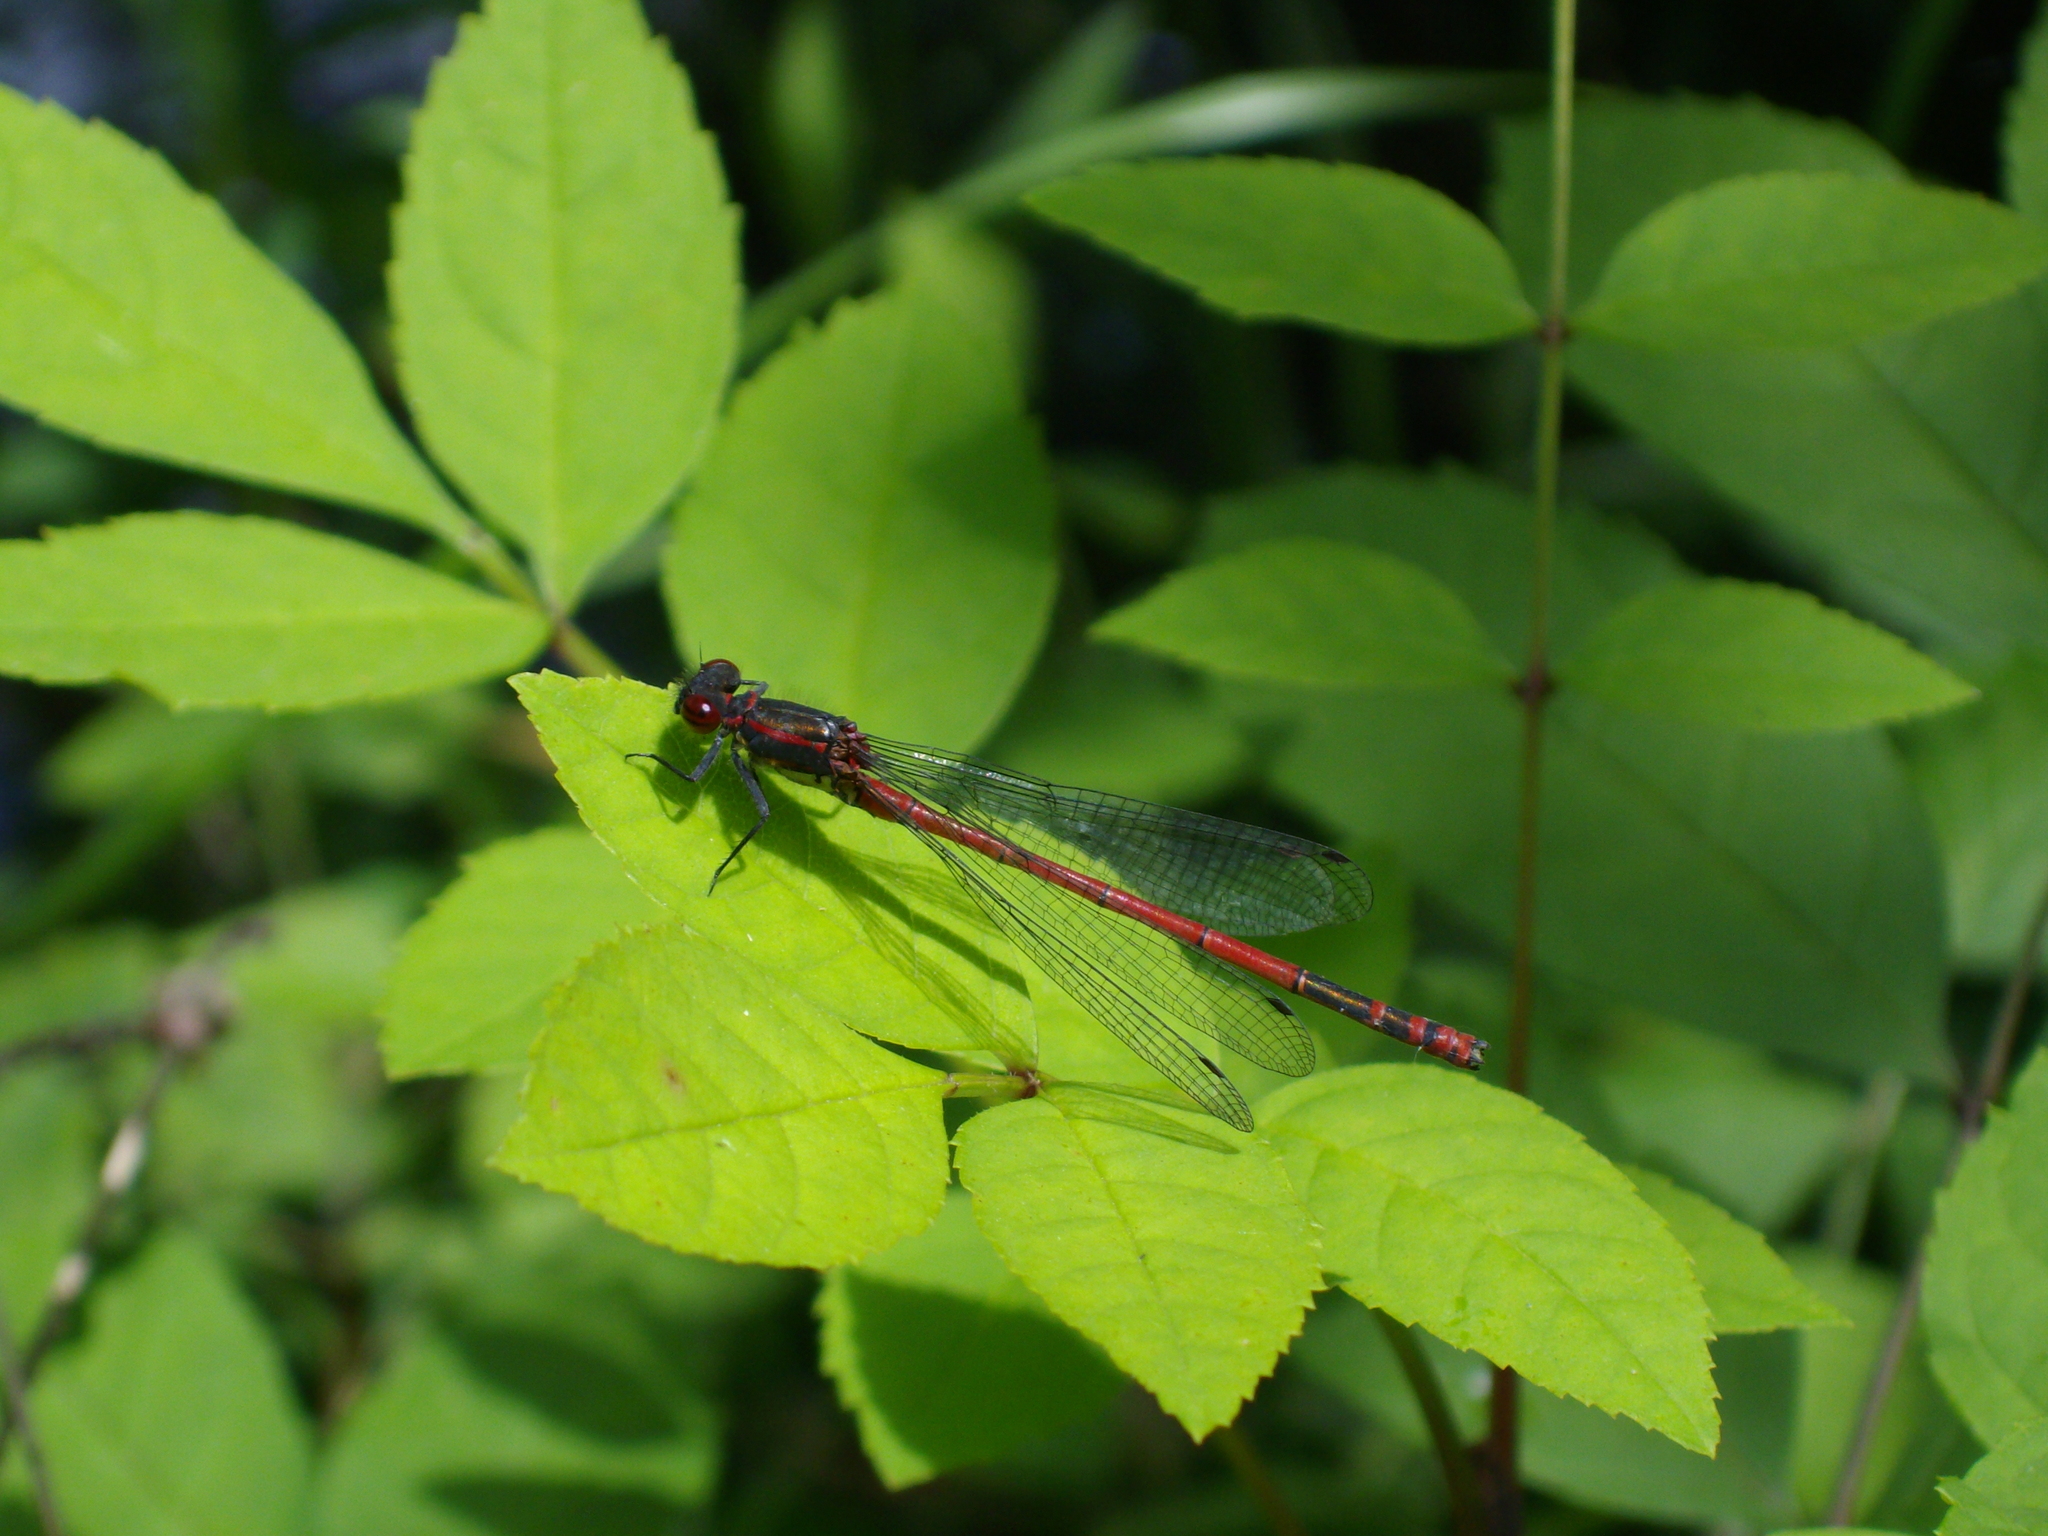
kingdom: Animalia
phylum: Arthropoda
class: Insecta
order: Odonata
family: Coenagrionidae
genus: Pyrrhosoma
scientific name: Pyrrhosoma nymphula
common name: Large red damsel
